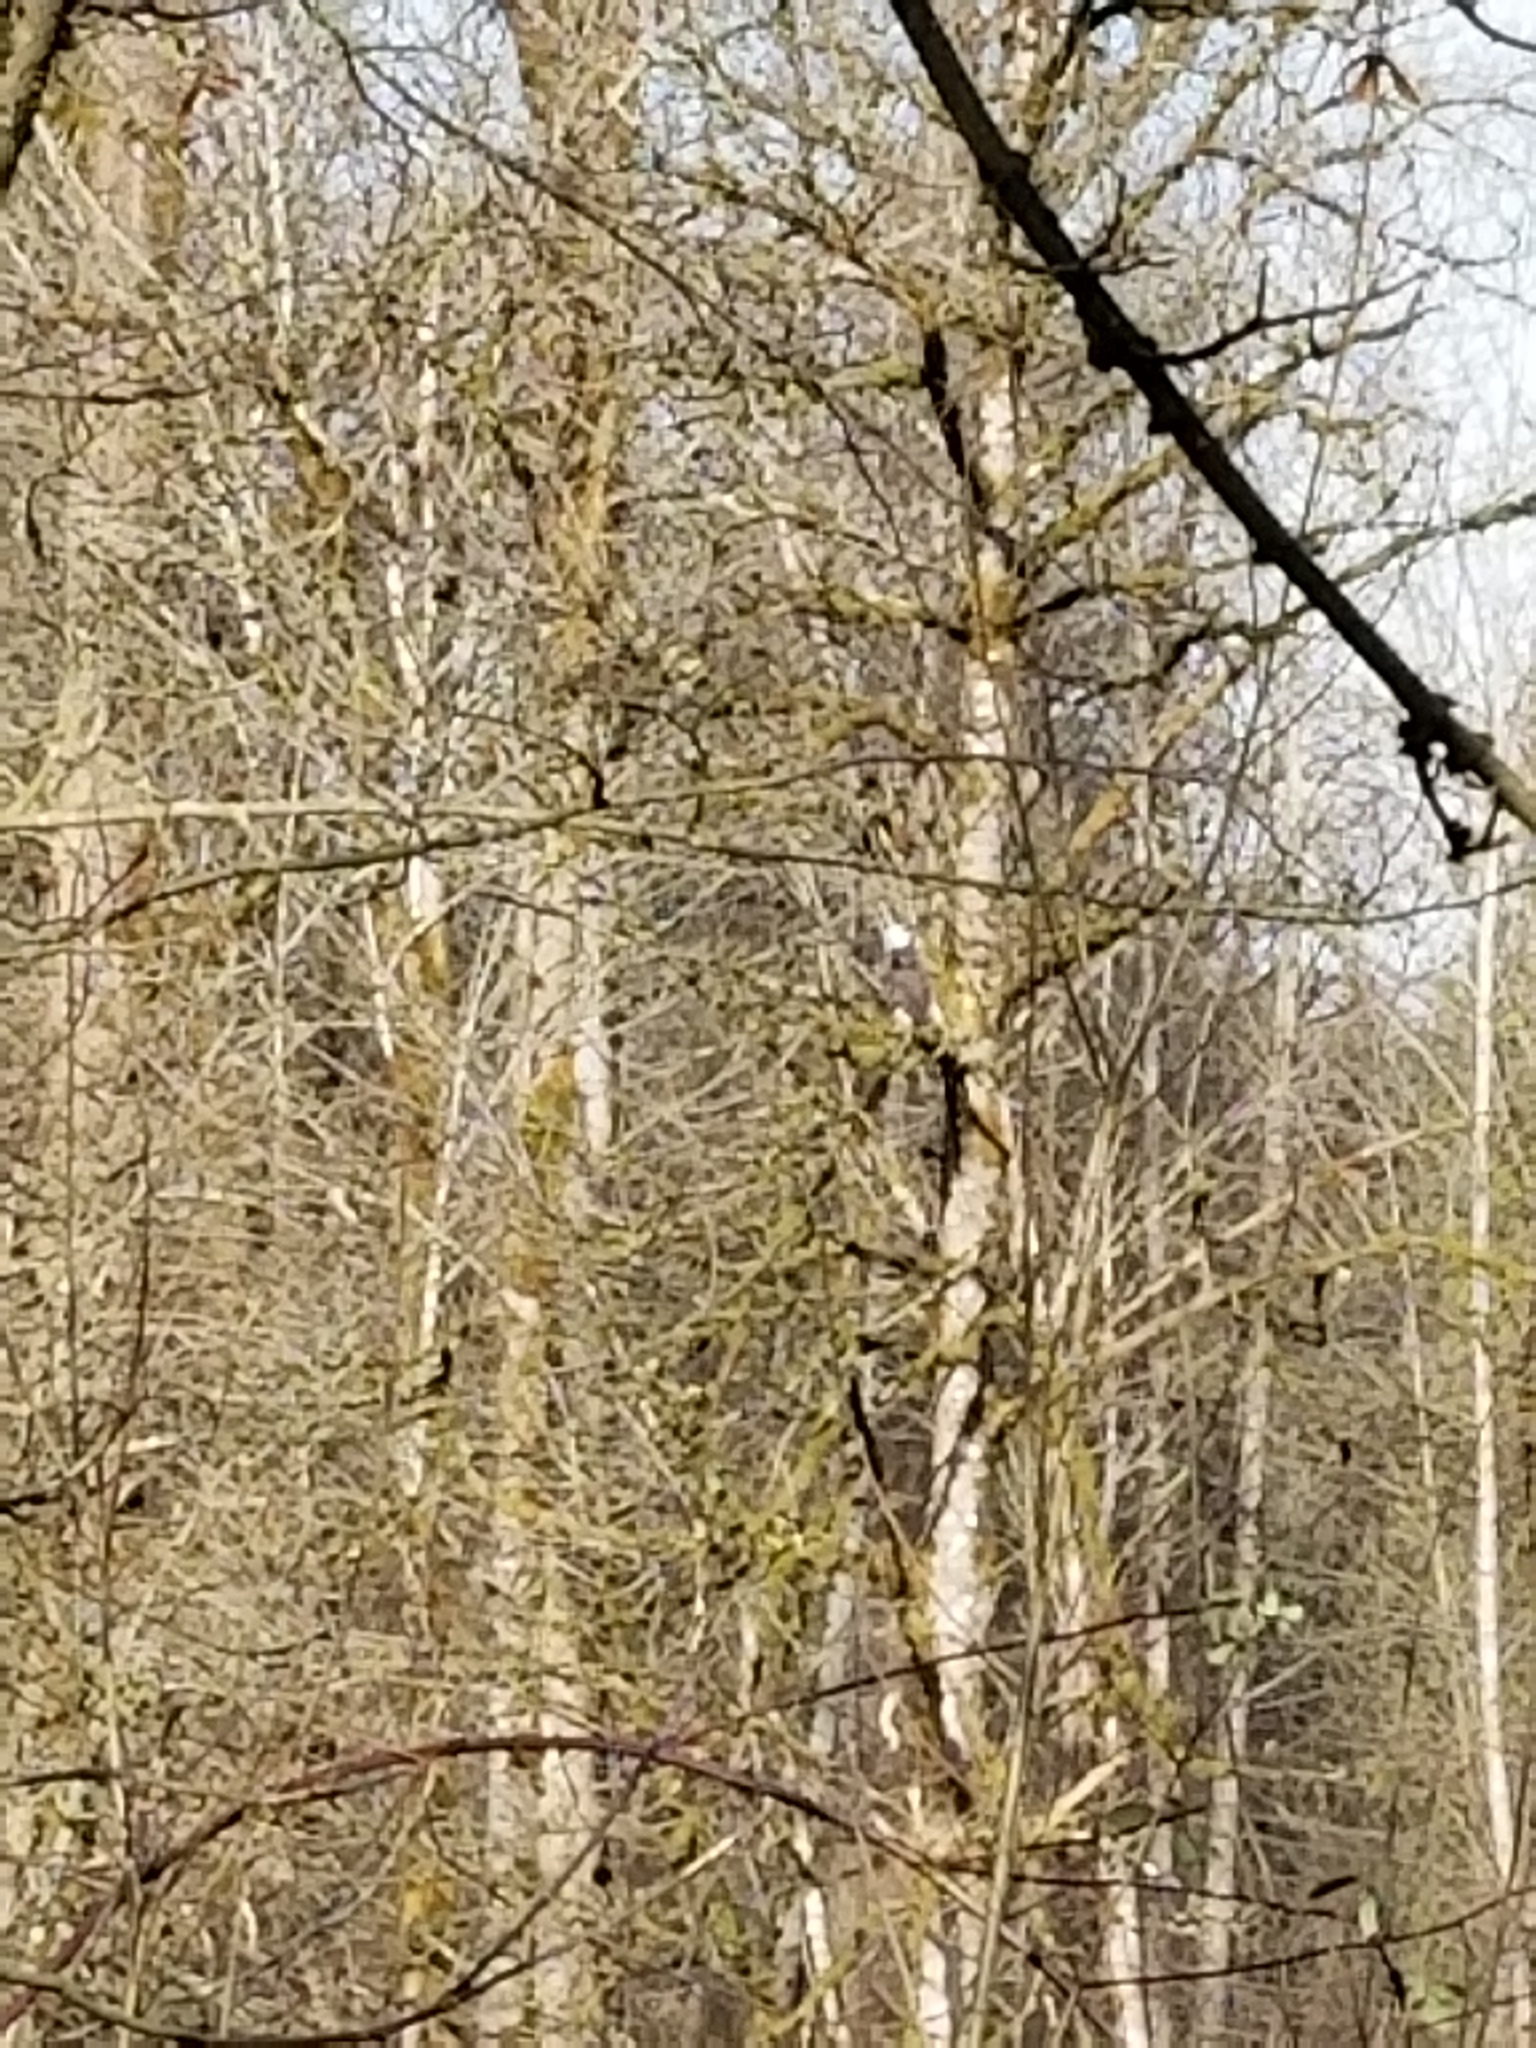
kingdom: Animalia
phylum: Chordata
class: Aves
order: Accipitriformes
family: Accipitridae
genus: Haliaeetus
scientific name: Haliaeetus leucocephalus
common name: Bald eagle
